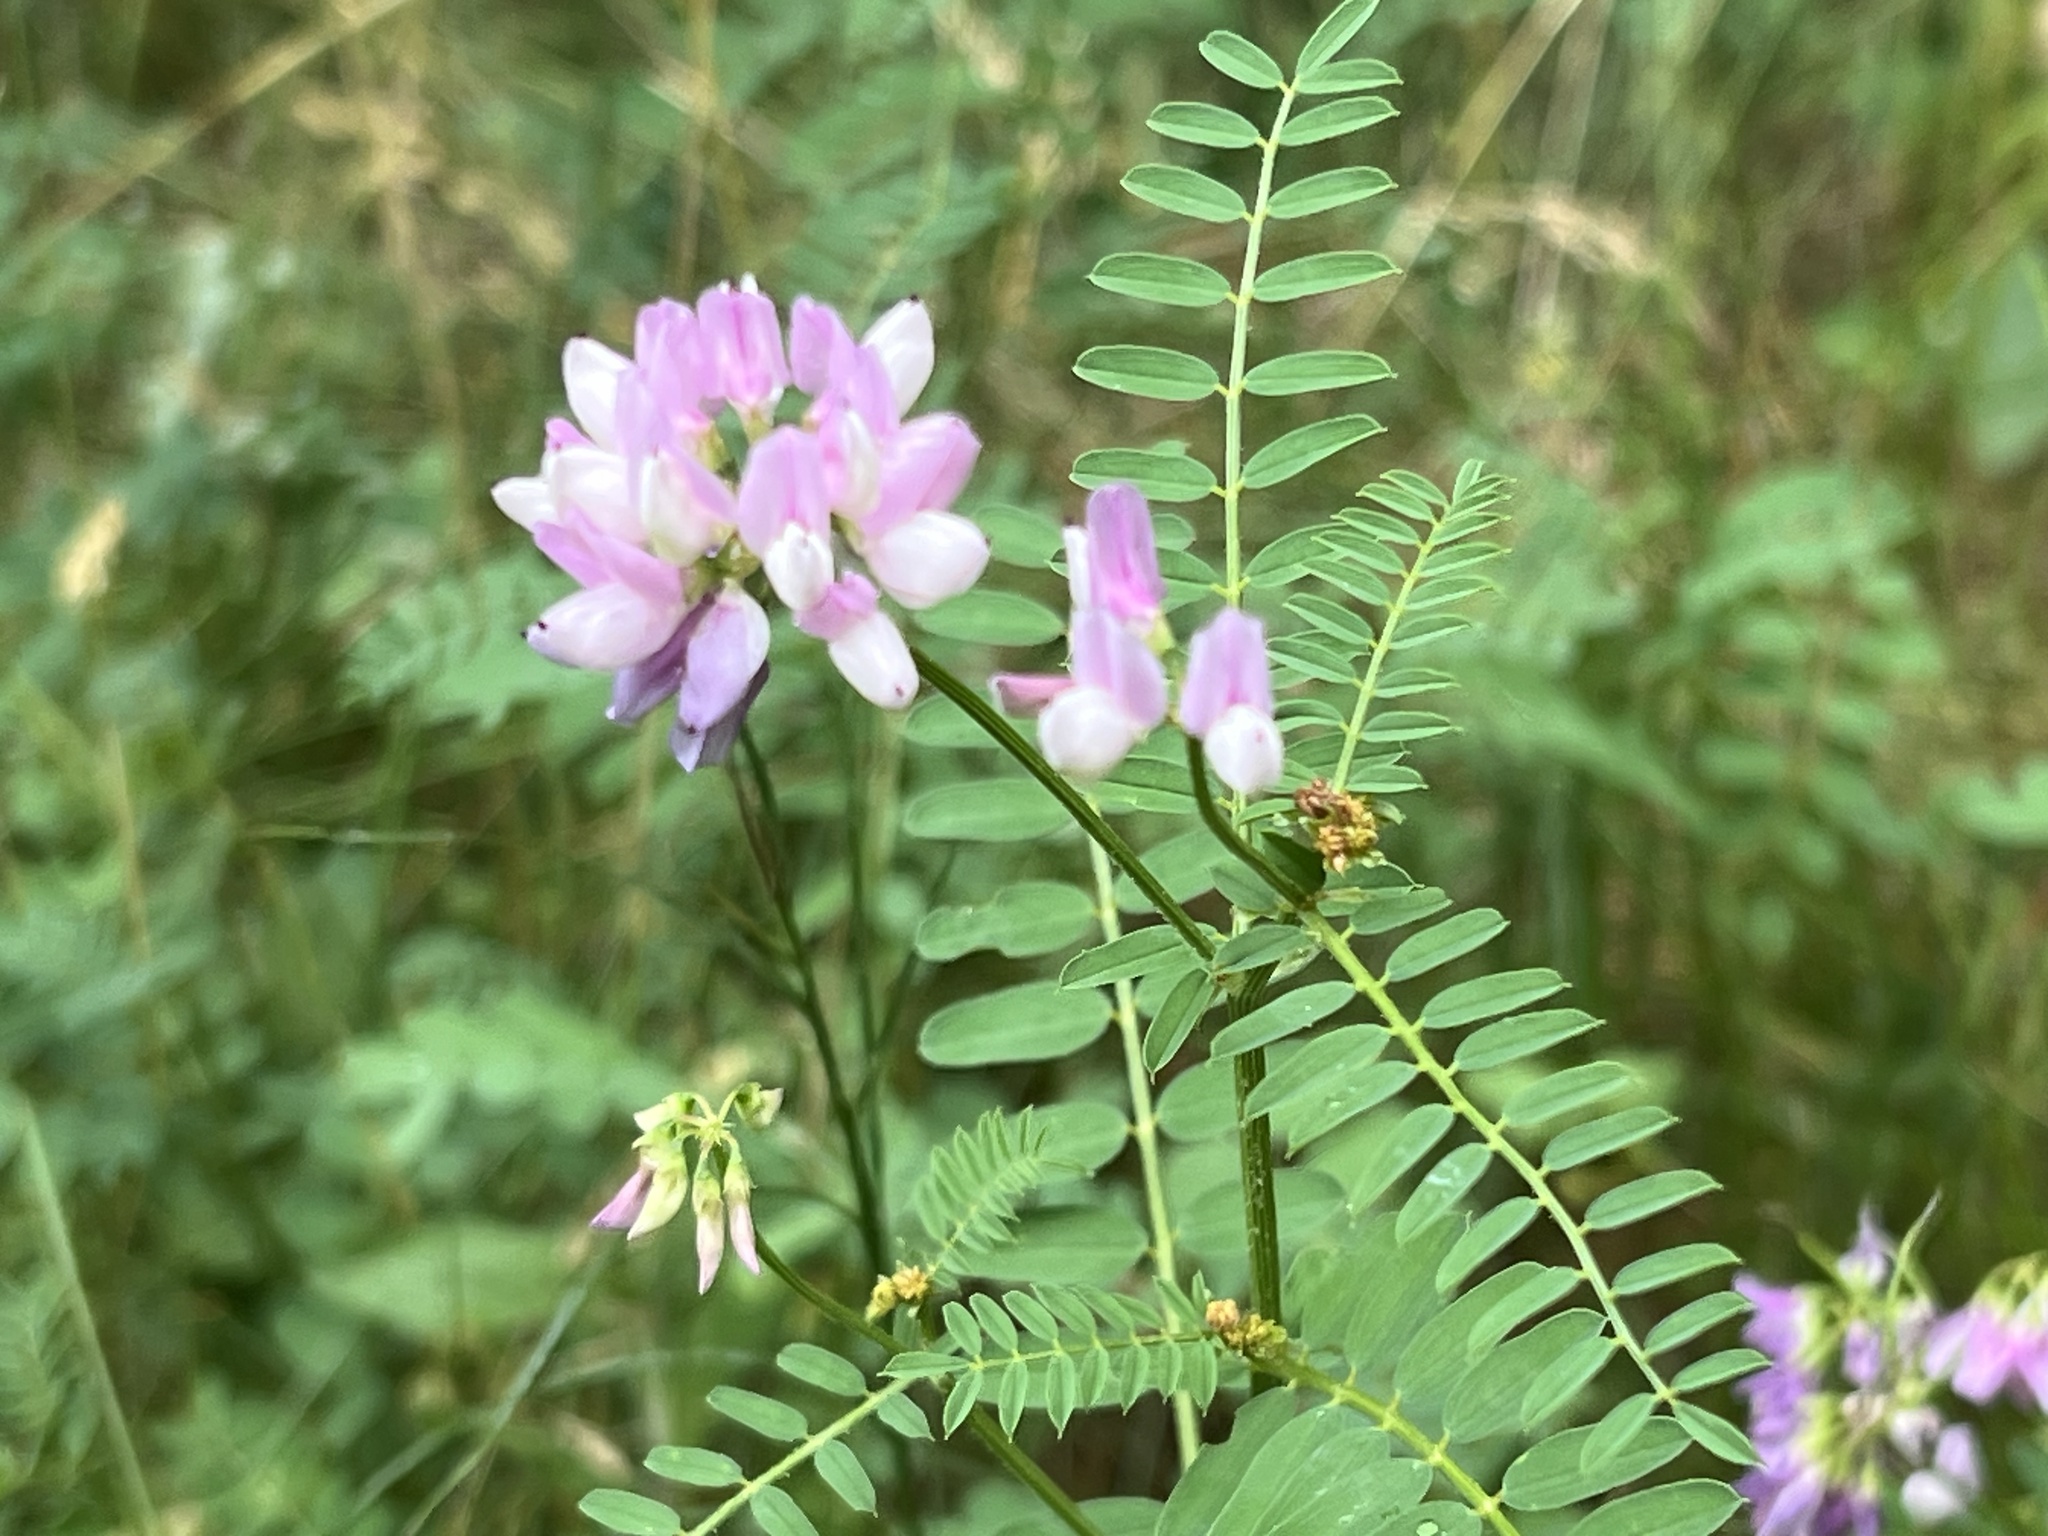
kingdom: Plantae
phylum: Tracheophyta
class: Magnoliopsida
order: Fabales
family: Fabaceae
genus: Coronilla
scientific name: Coronilla varia
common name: Crownvetch
